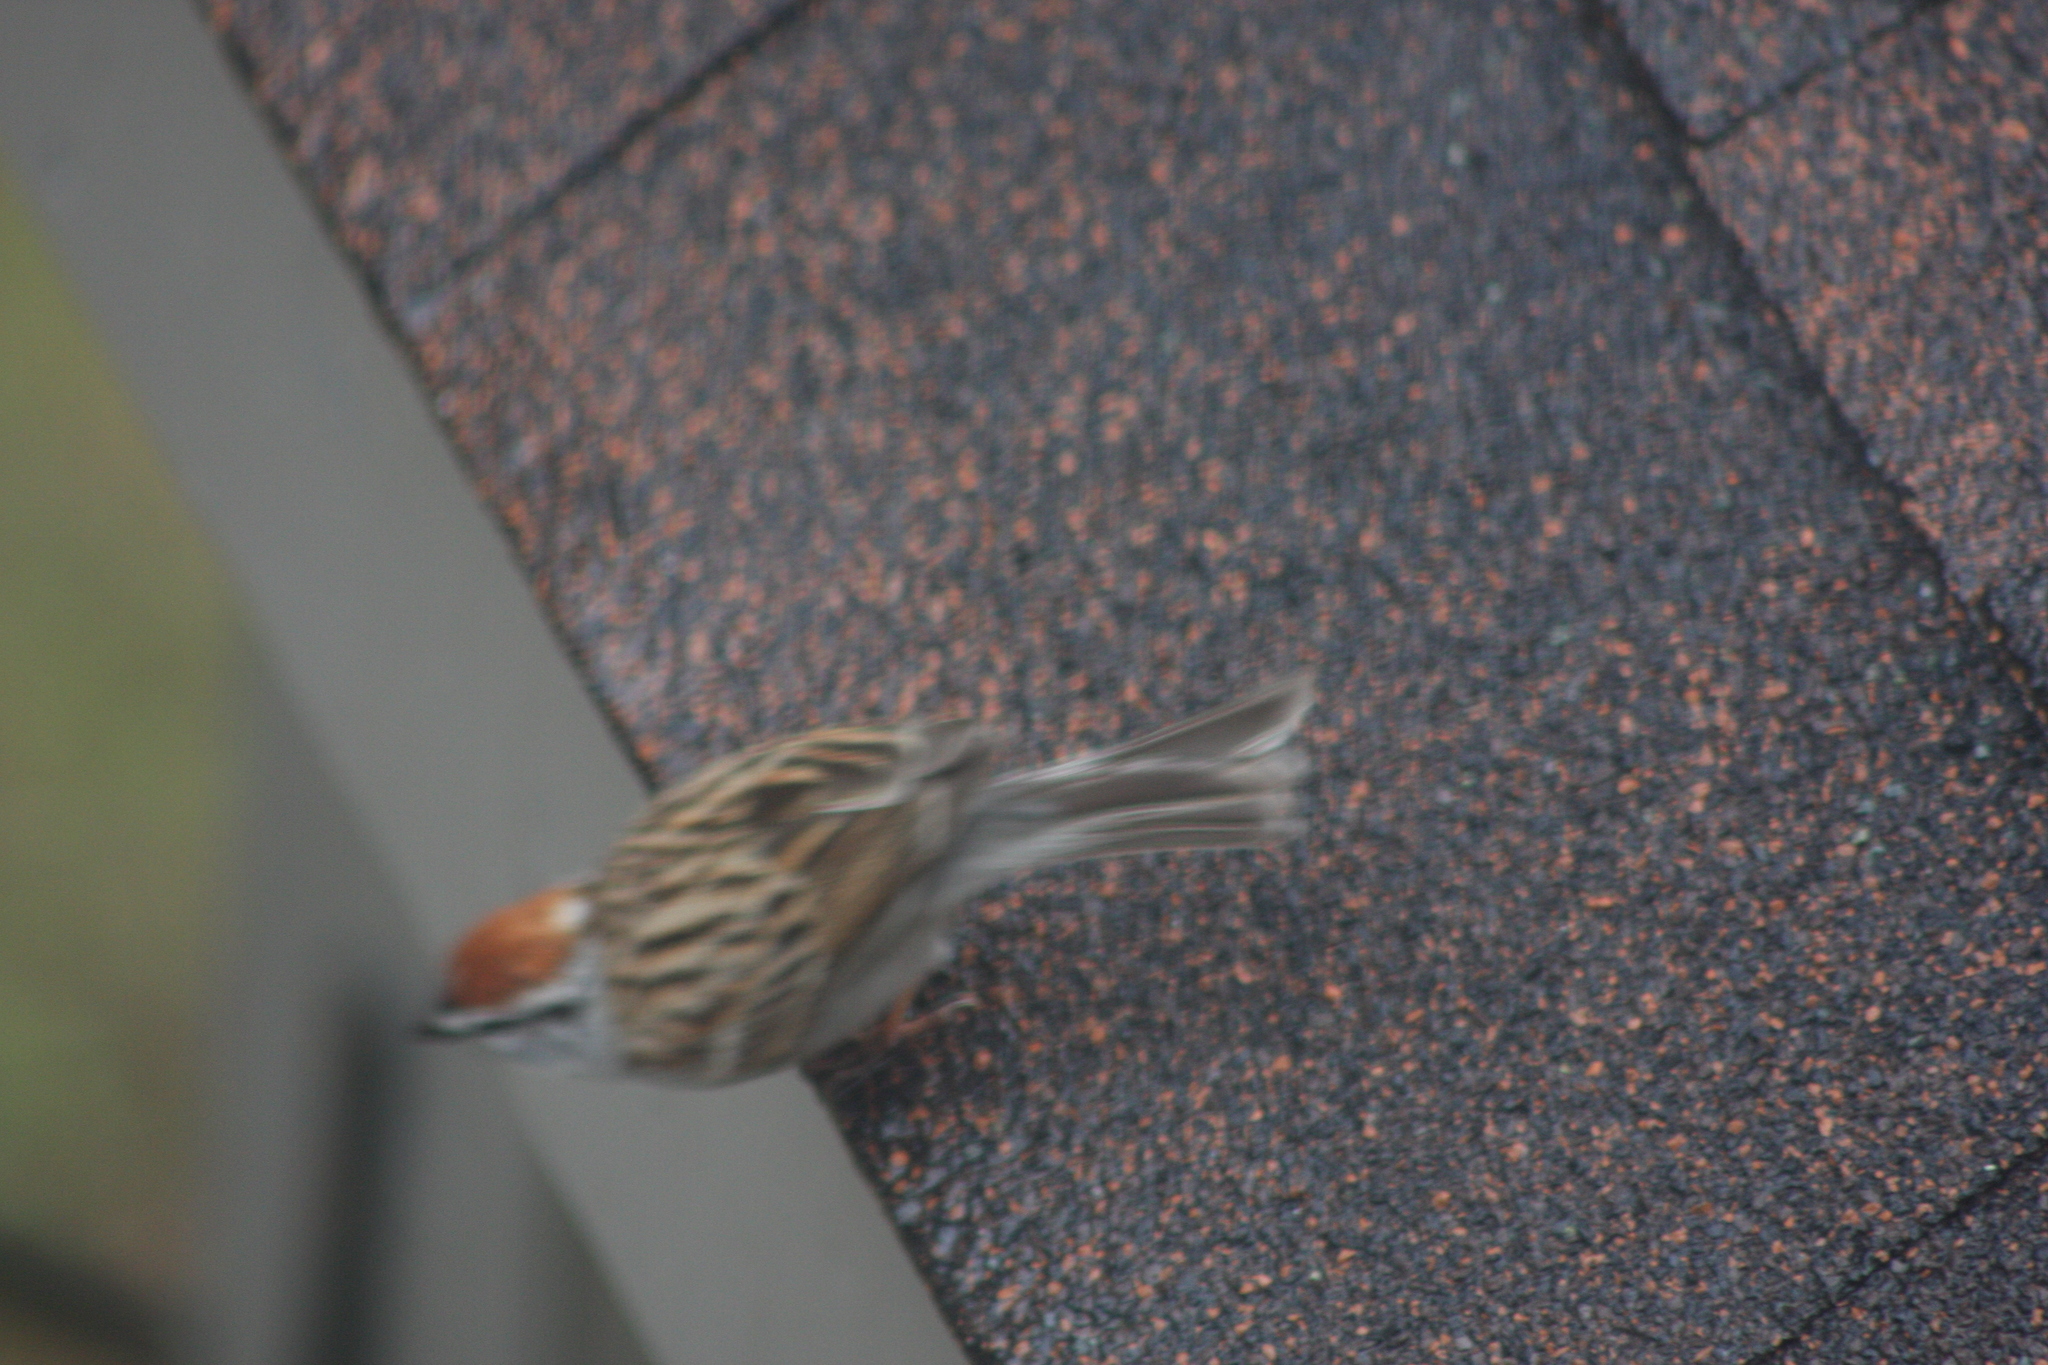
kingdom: Animalia
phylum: Chordata
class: Aves
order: Passeriformes
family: Passerellidae
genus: Spizella
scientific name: Spizella passerina
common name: Chipping sparrow
